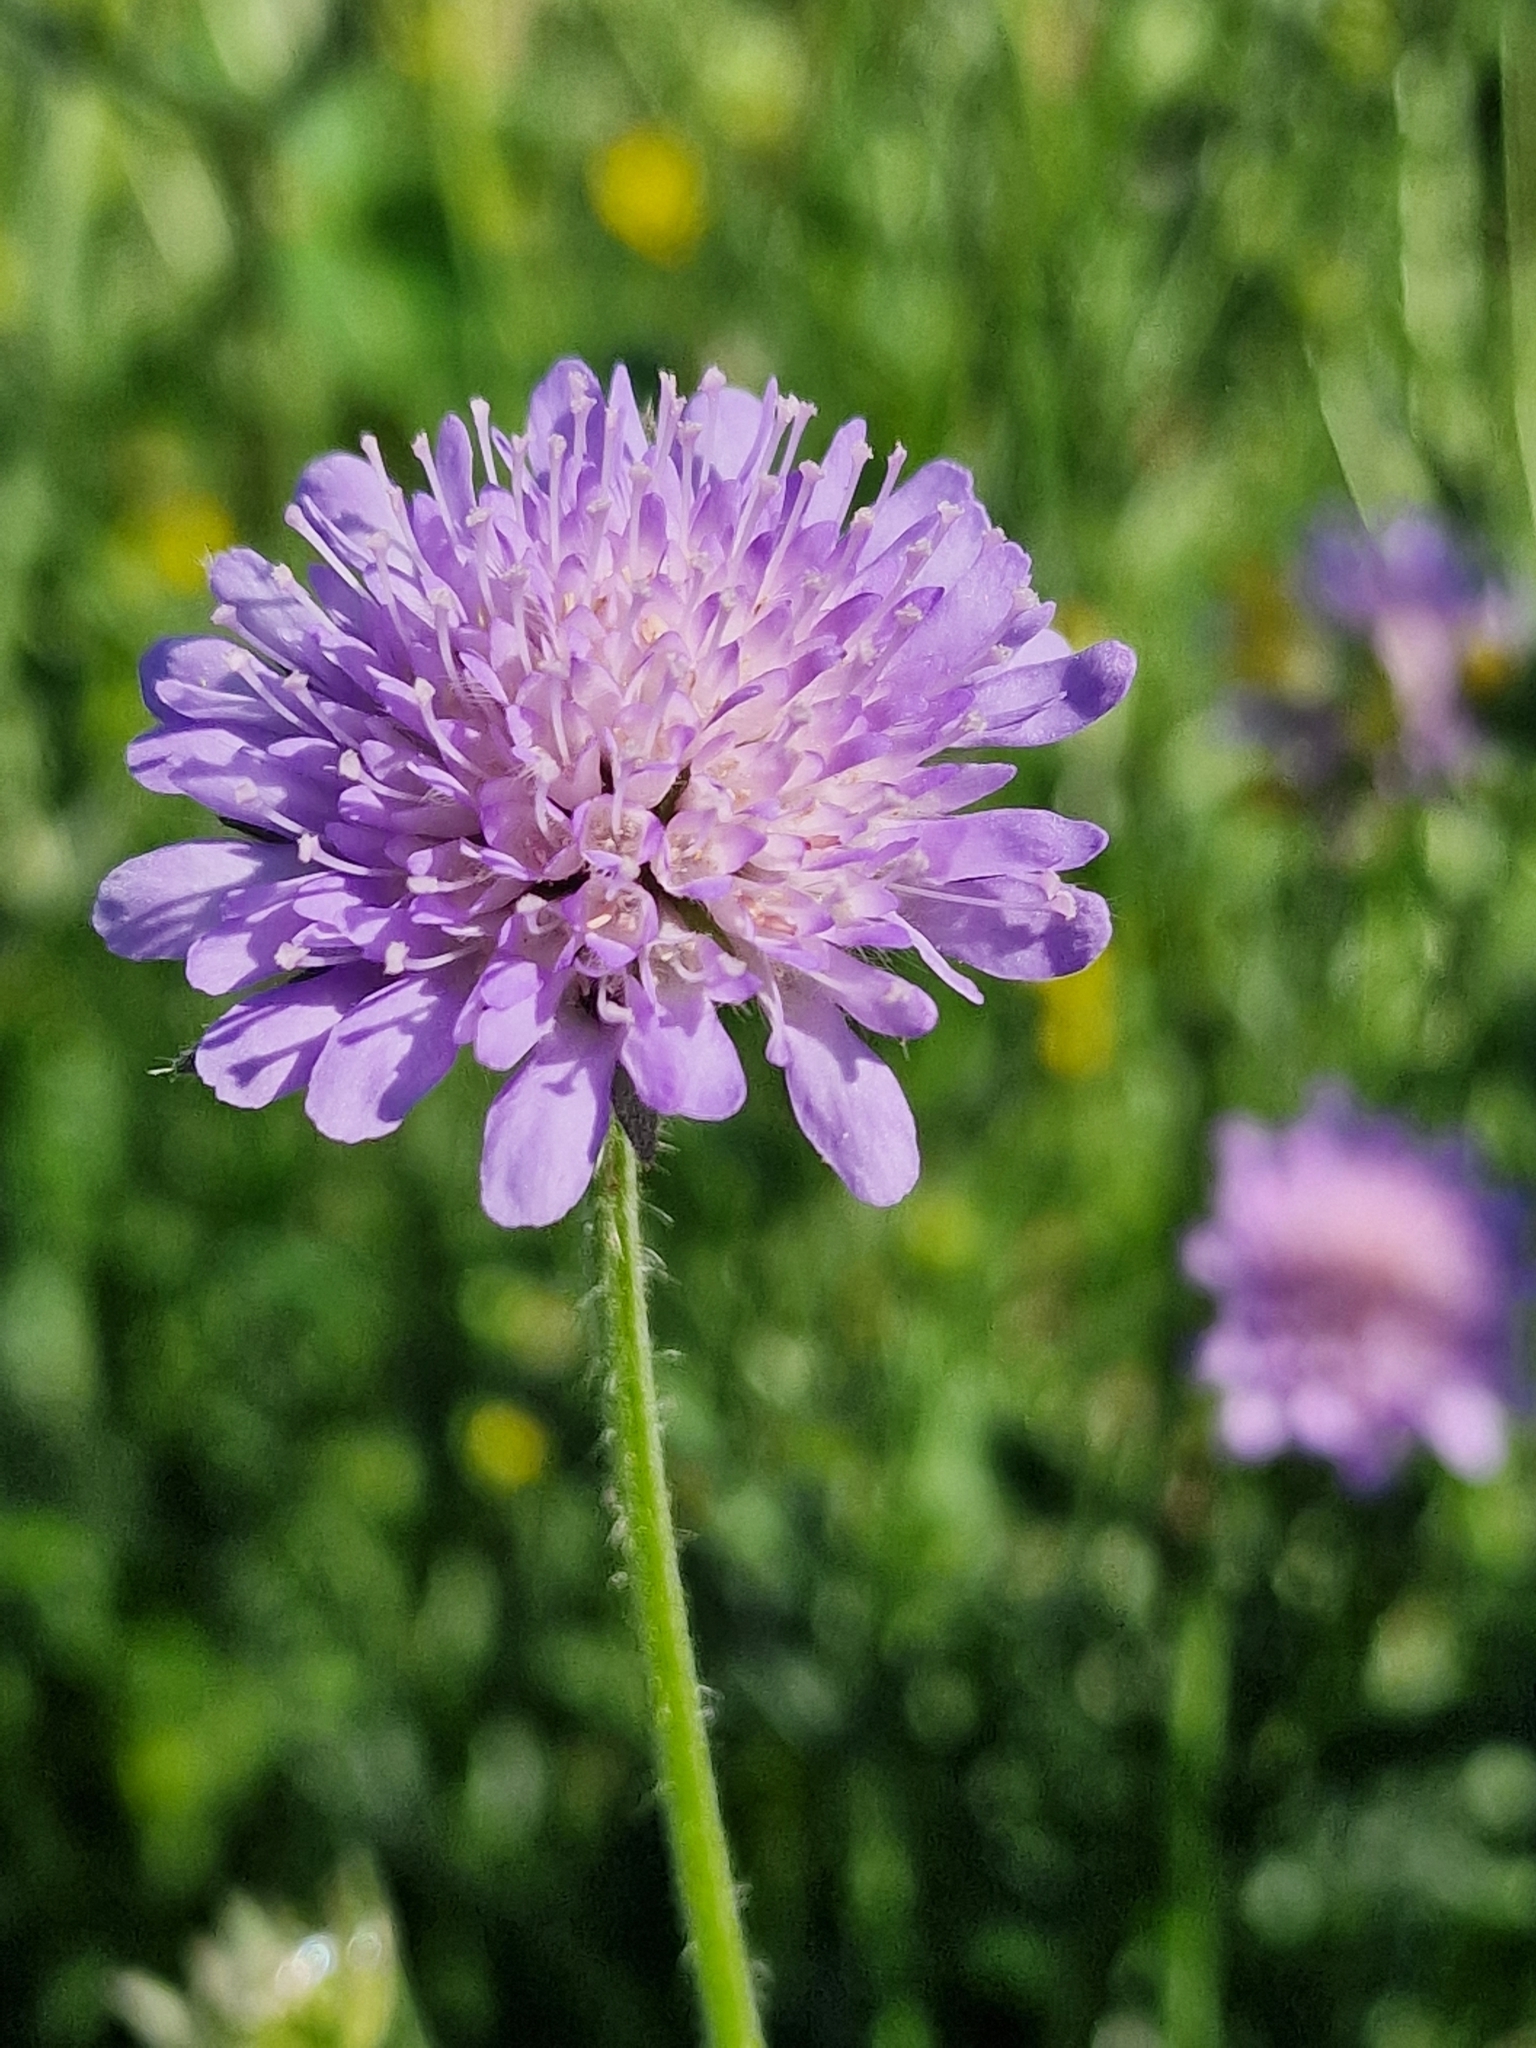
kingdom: Plantae
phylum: Tracheophyta
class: Magnoliopsida
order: Dipsacales
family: Caprifoliaceae
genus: Knautia
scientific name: Knautia arvensis
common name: Field scabiosa
